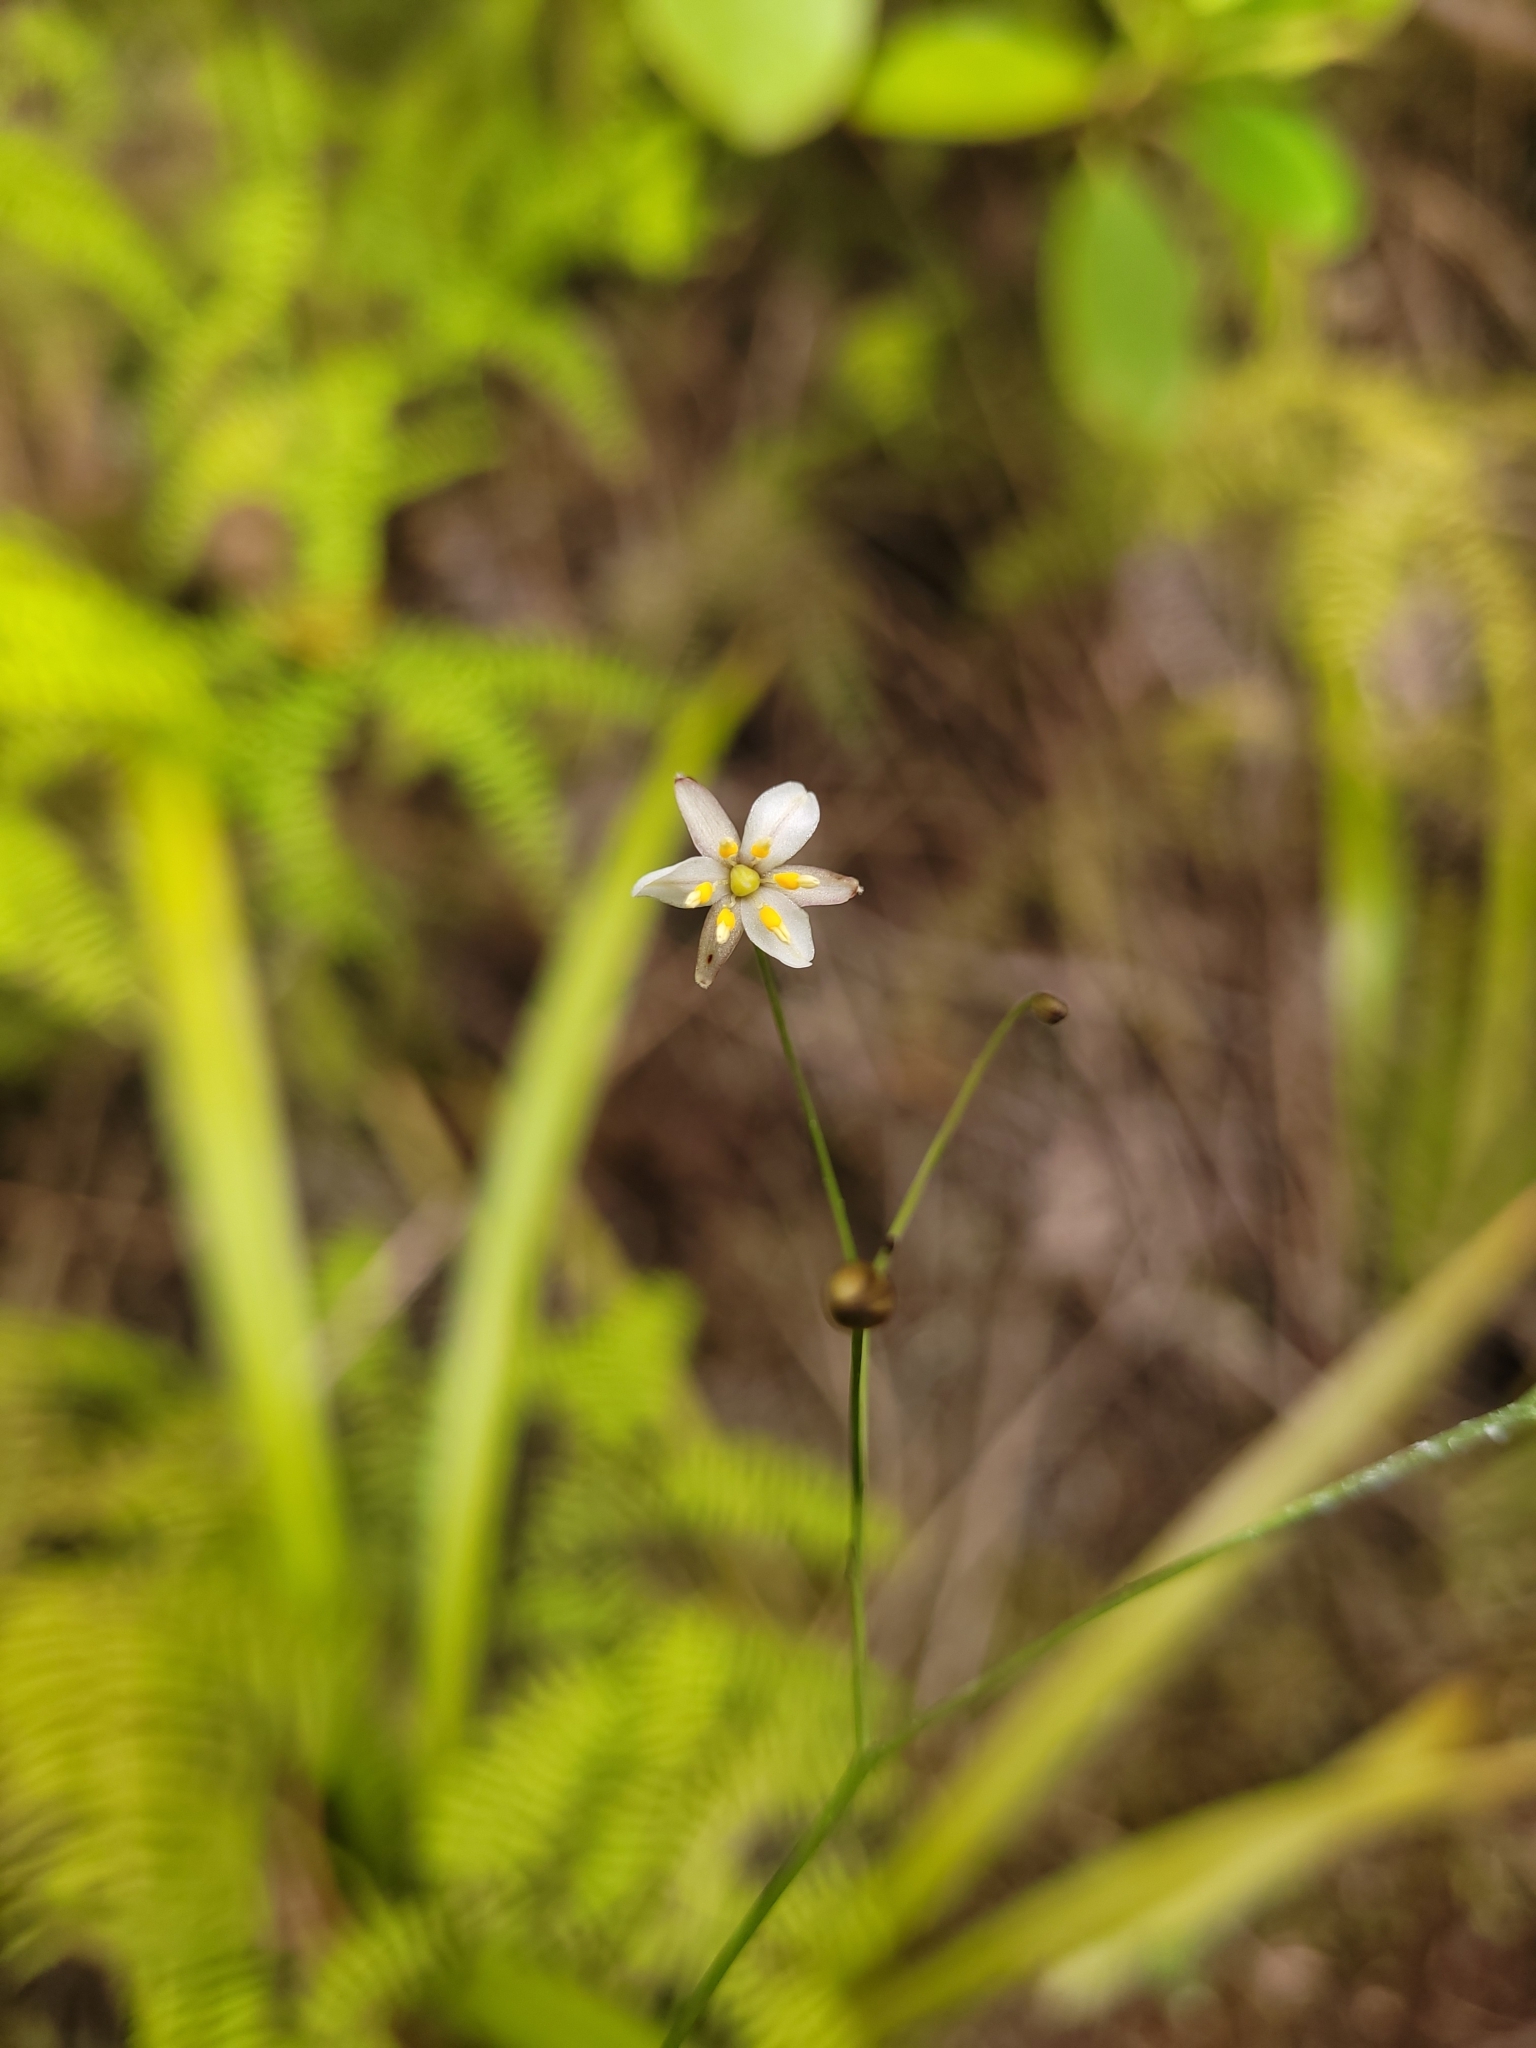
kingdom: Plantae
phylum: Tracheophyta
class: Liliopsida
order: Asparagales
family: Asphodelaceae
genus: Dianella
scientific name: Dianella nigra
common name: New zealand-blueberry
